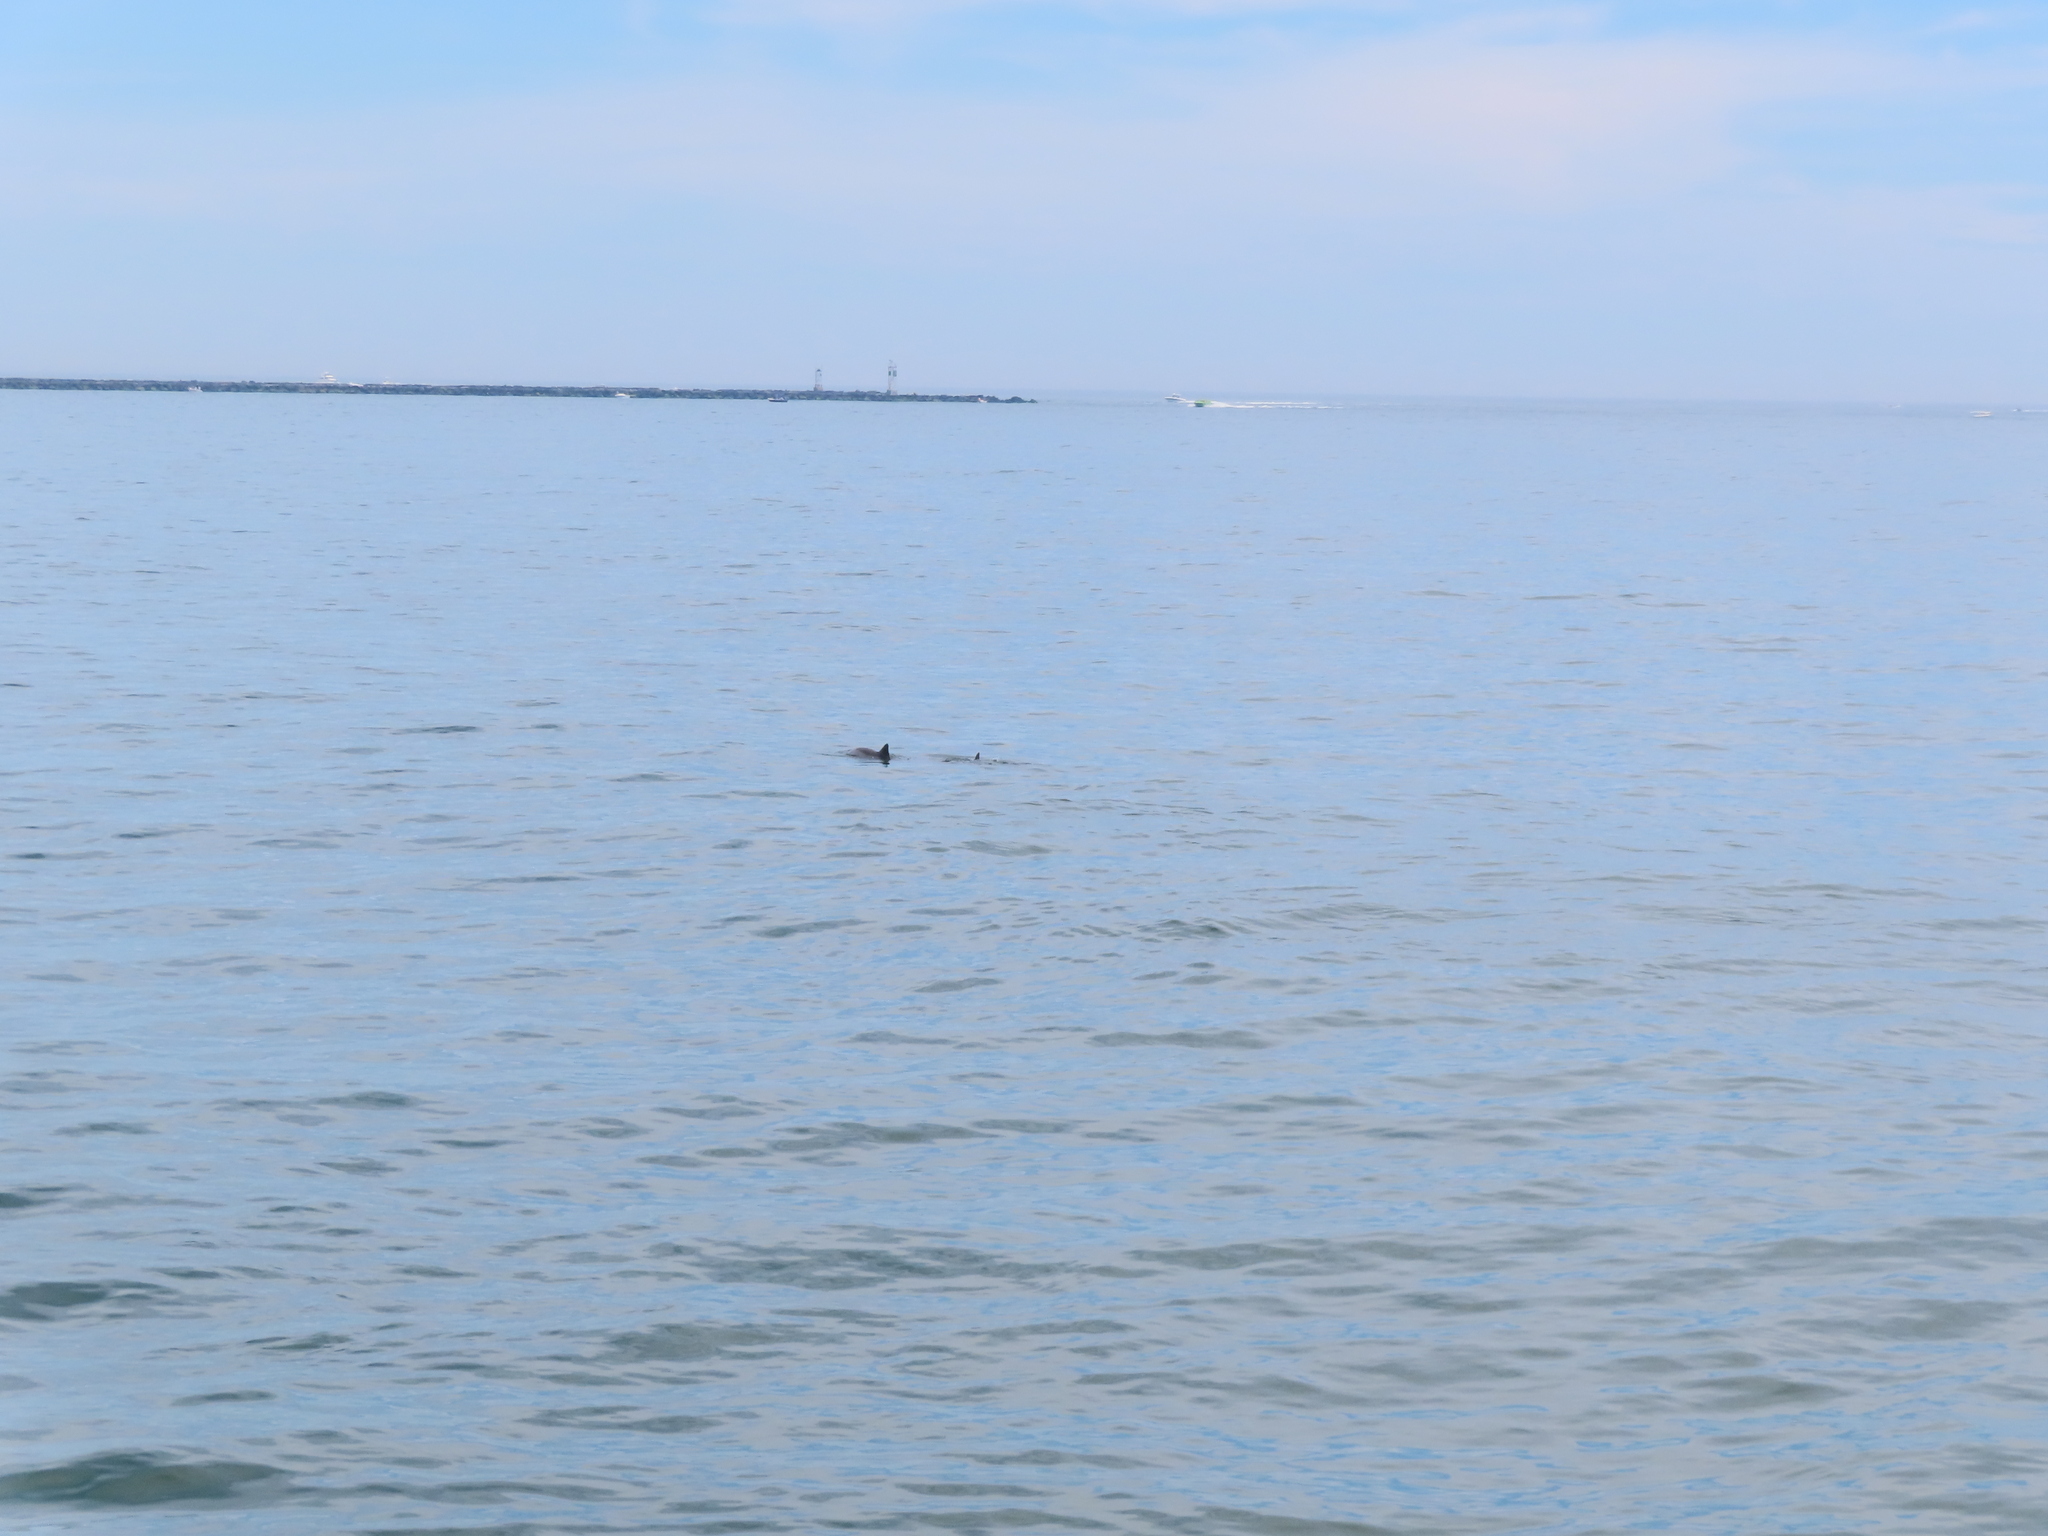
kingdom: Animalia
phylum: Chordata
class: Mammalia
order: Cetacea
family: Delphinidae
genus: Tursiops
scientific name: Tursiops truncatus
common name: Bottlenose dolphin
